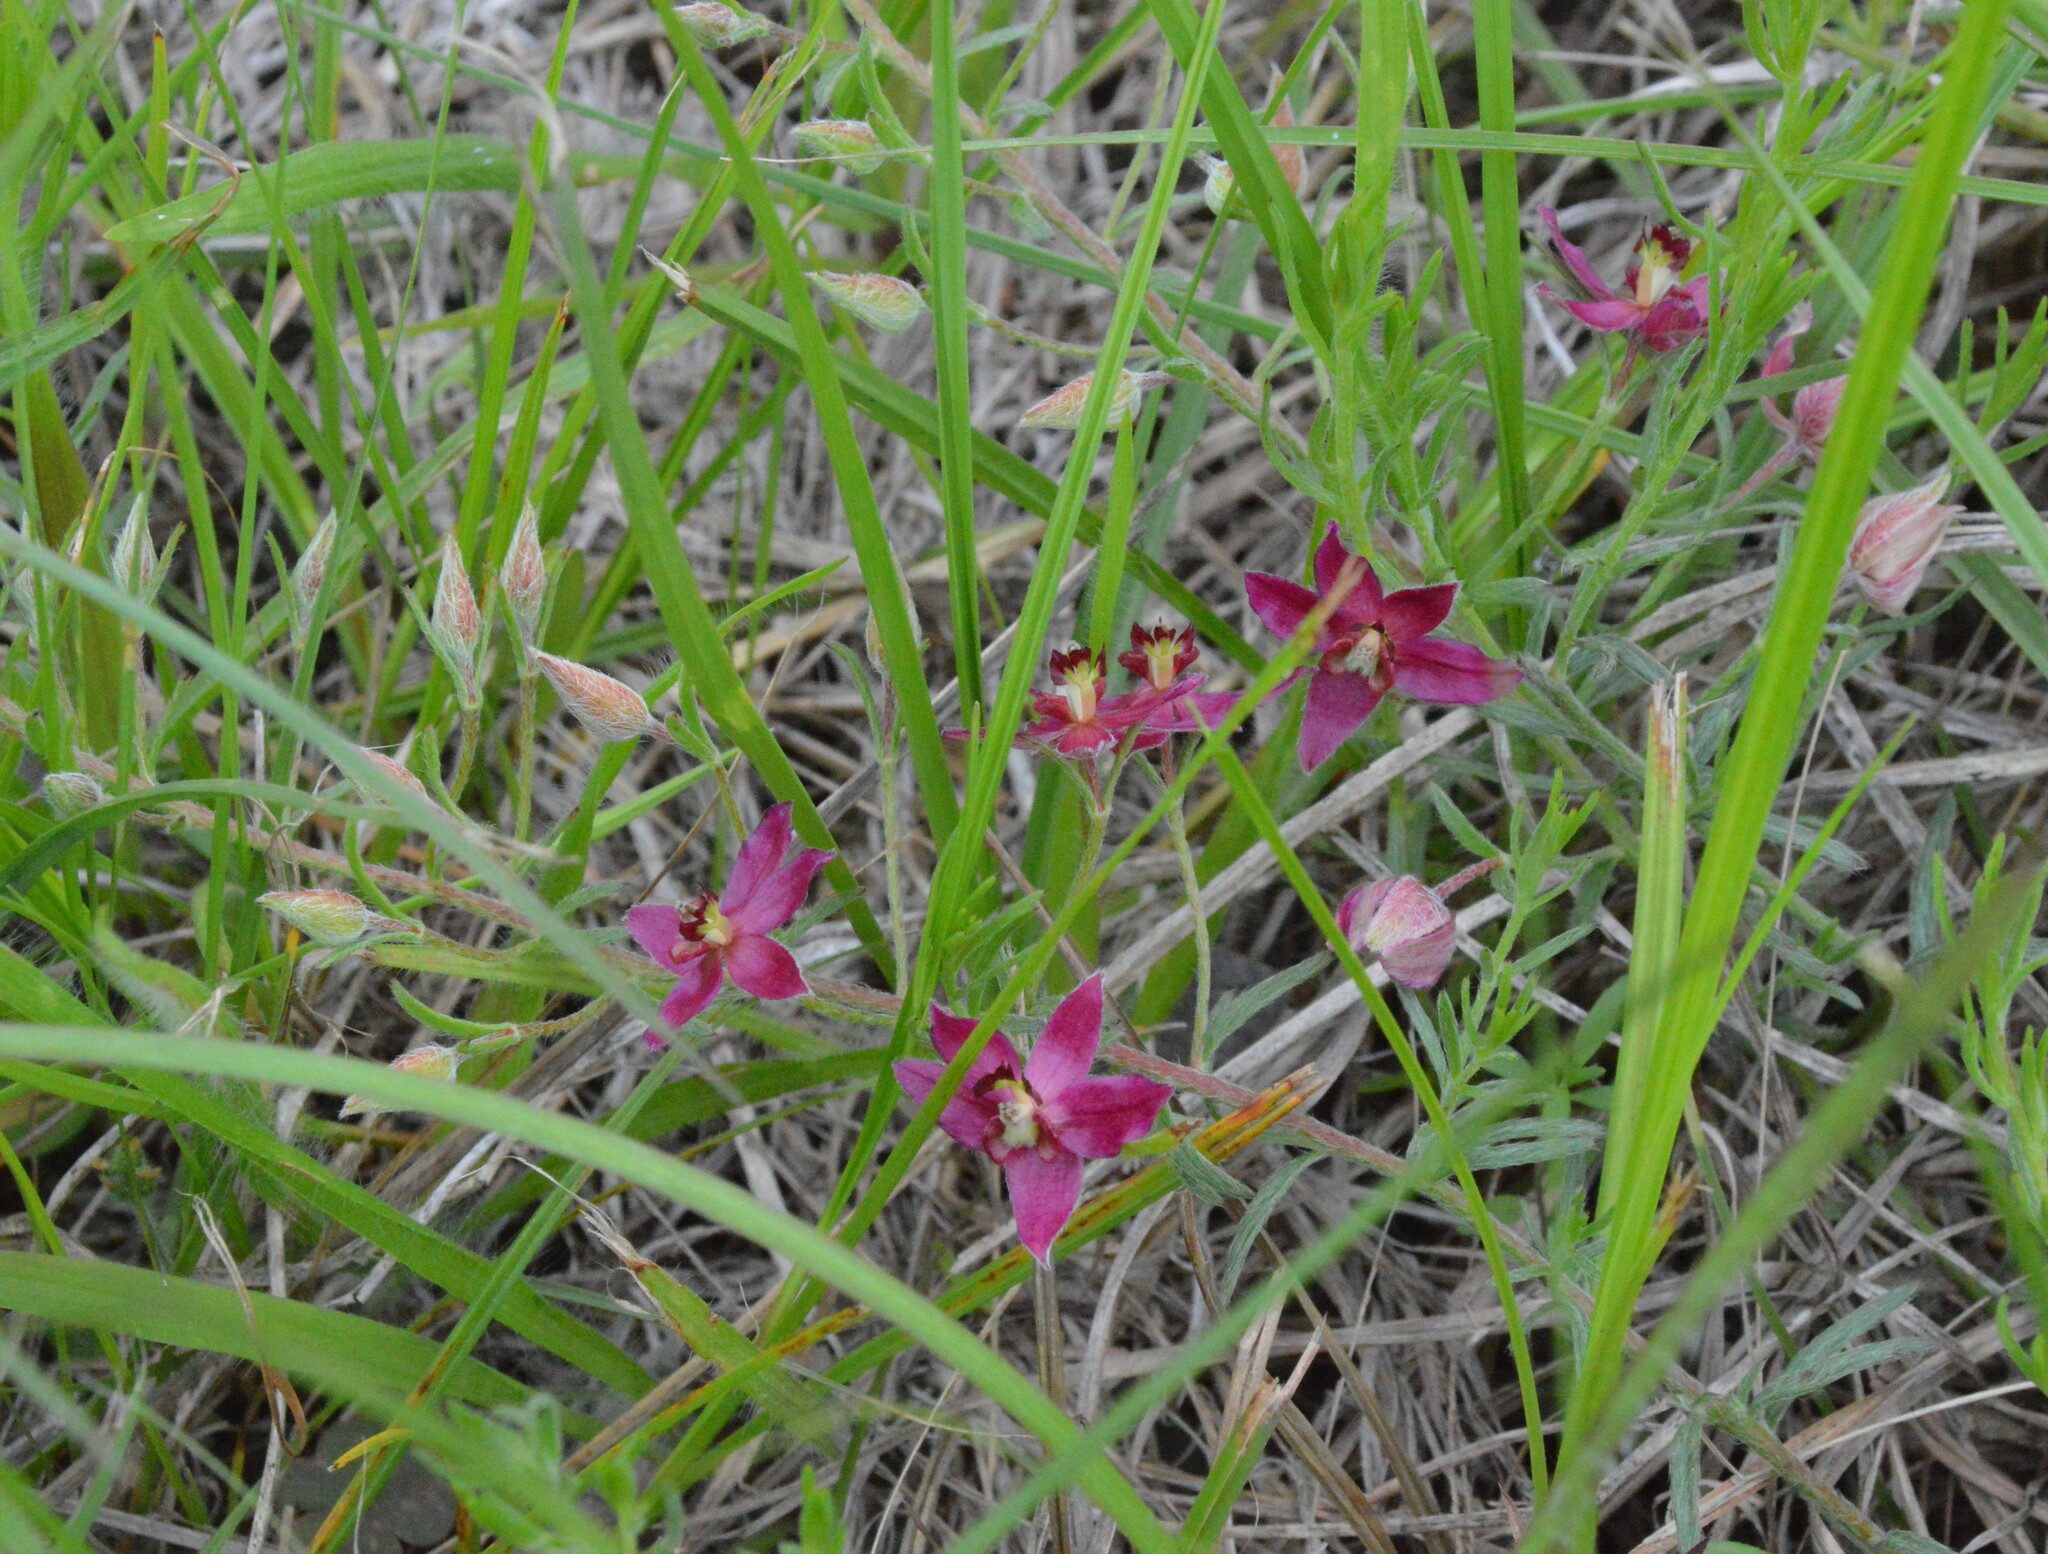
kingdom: Plantae
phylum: Tracheophyta
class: Magnoliopsida
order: Zygophyllales
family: Krameriaceae
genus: Krameria
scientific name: Krameria lanceolata
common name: Ratany
